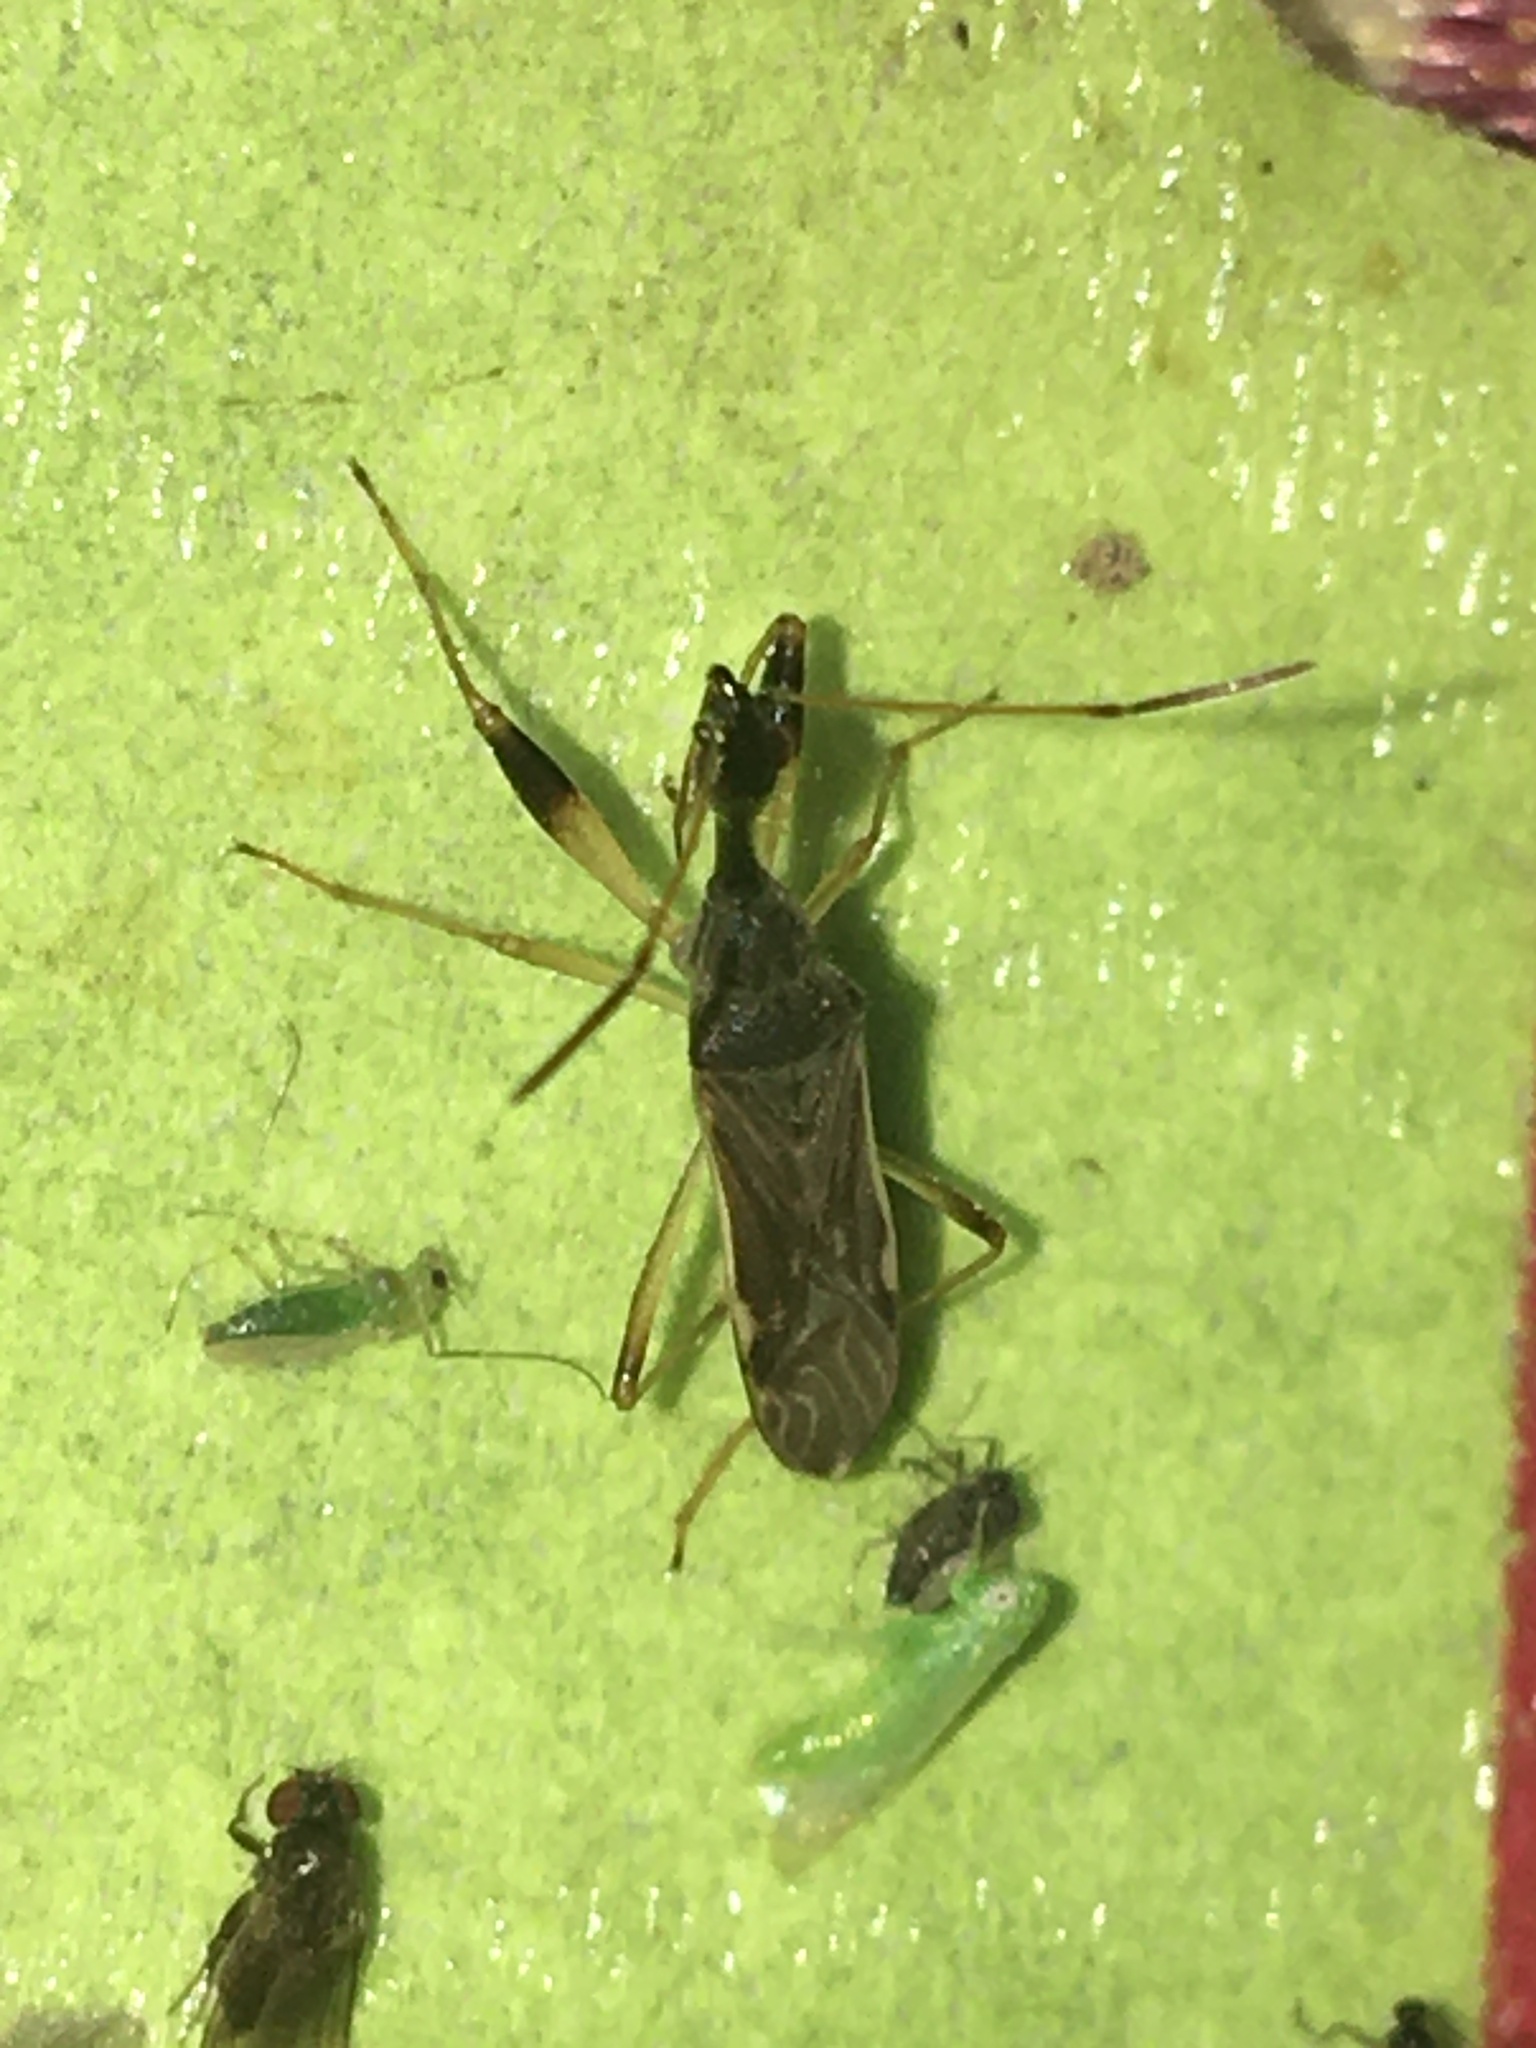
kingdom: Animalia
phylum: Arthropoda
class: Insecta
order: Hemiptera
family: Rhyparochromidae
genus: Myodocha
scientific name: Myodocha serripes
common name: Long-necked seed bug
